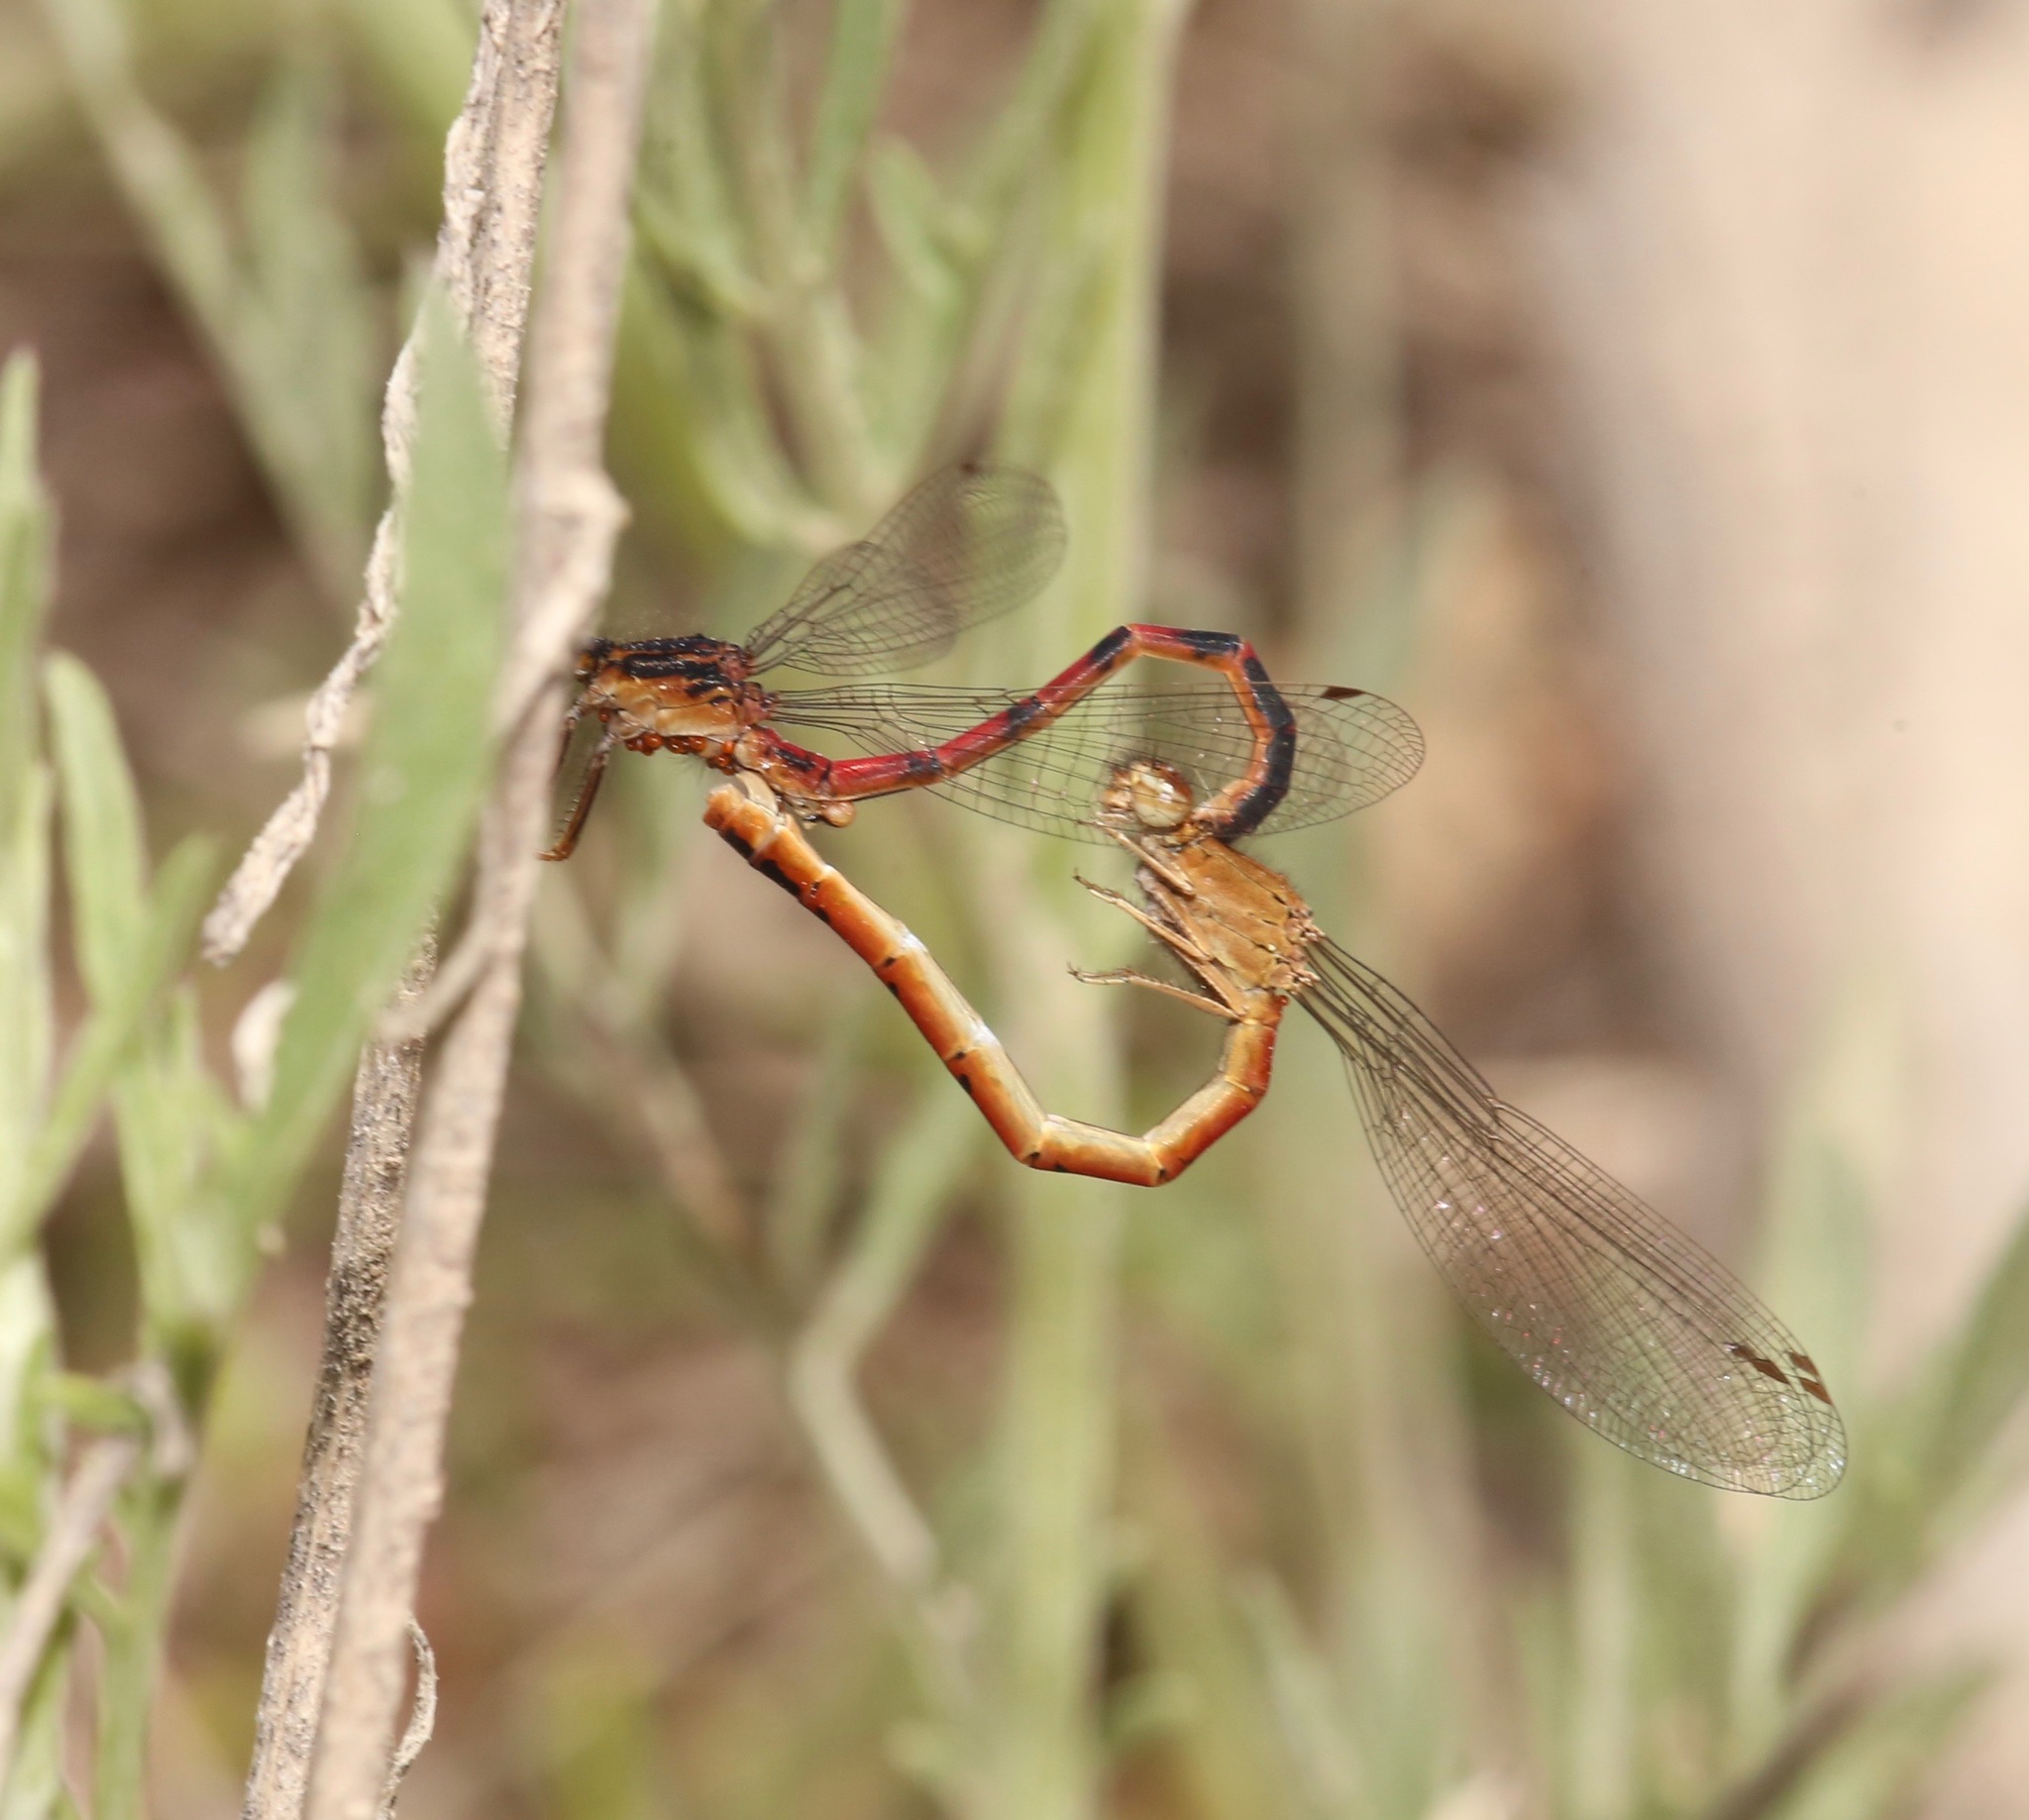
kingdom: Animalia
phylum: Arthropoda
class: Insecta
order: Odonata
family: Coenagrionidae
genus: Amphiagrion
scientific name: Amphiagrion abbreviatum
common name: Western red damsel
